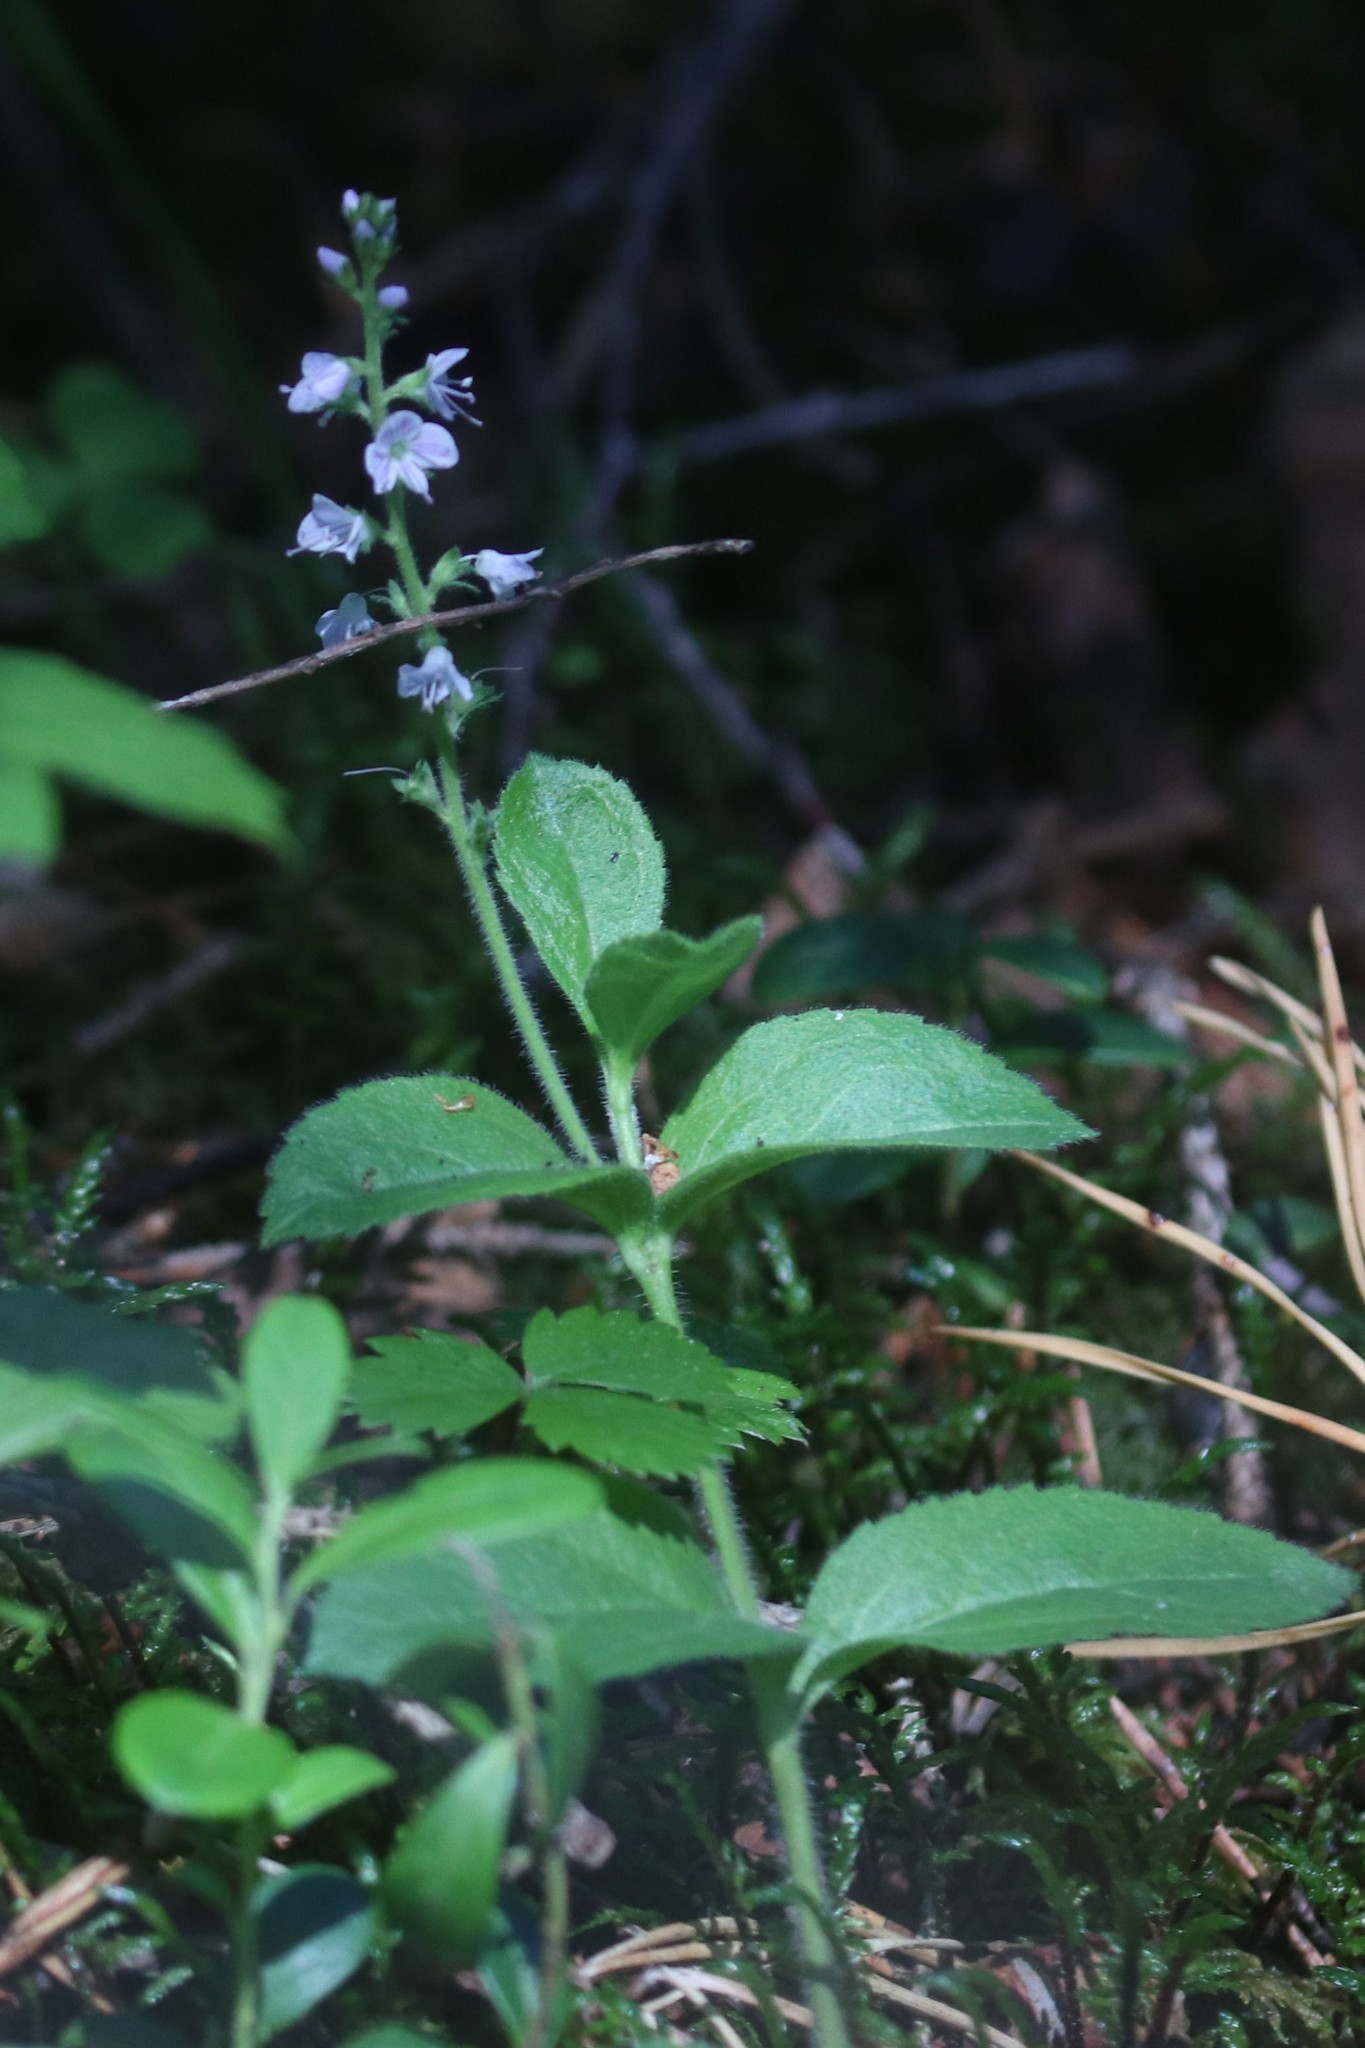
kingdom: Plantae
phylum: Tracheophyta
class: Magnoliopsida
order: Lamiales
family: Plantaginaceae
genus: Veronica
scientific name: Veronica officinalis
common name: Common speedwell
